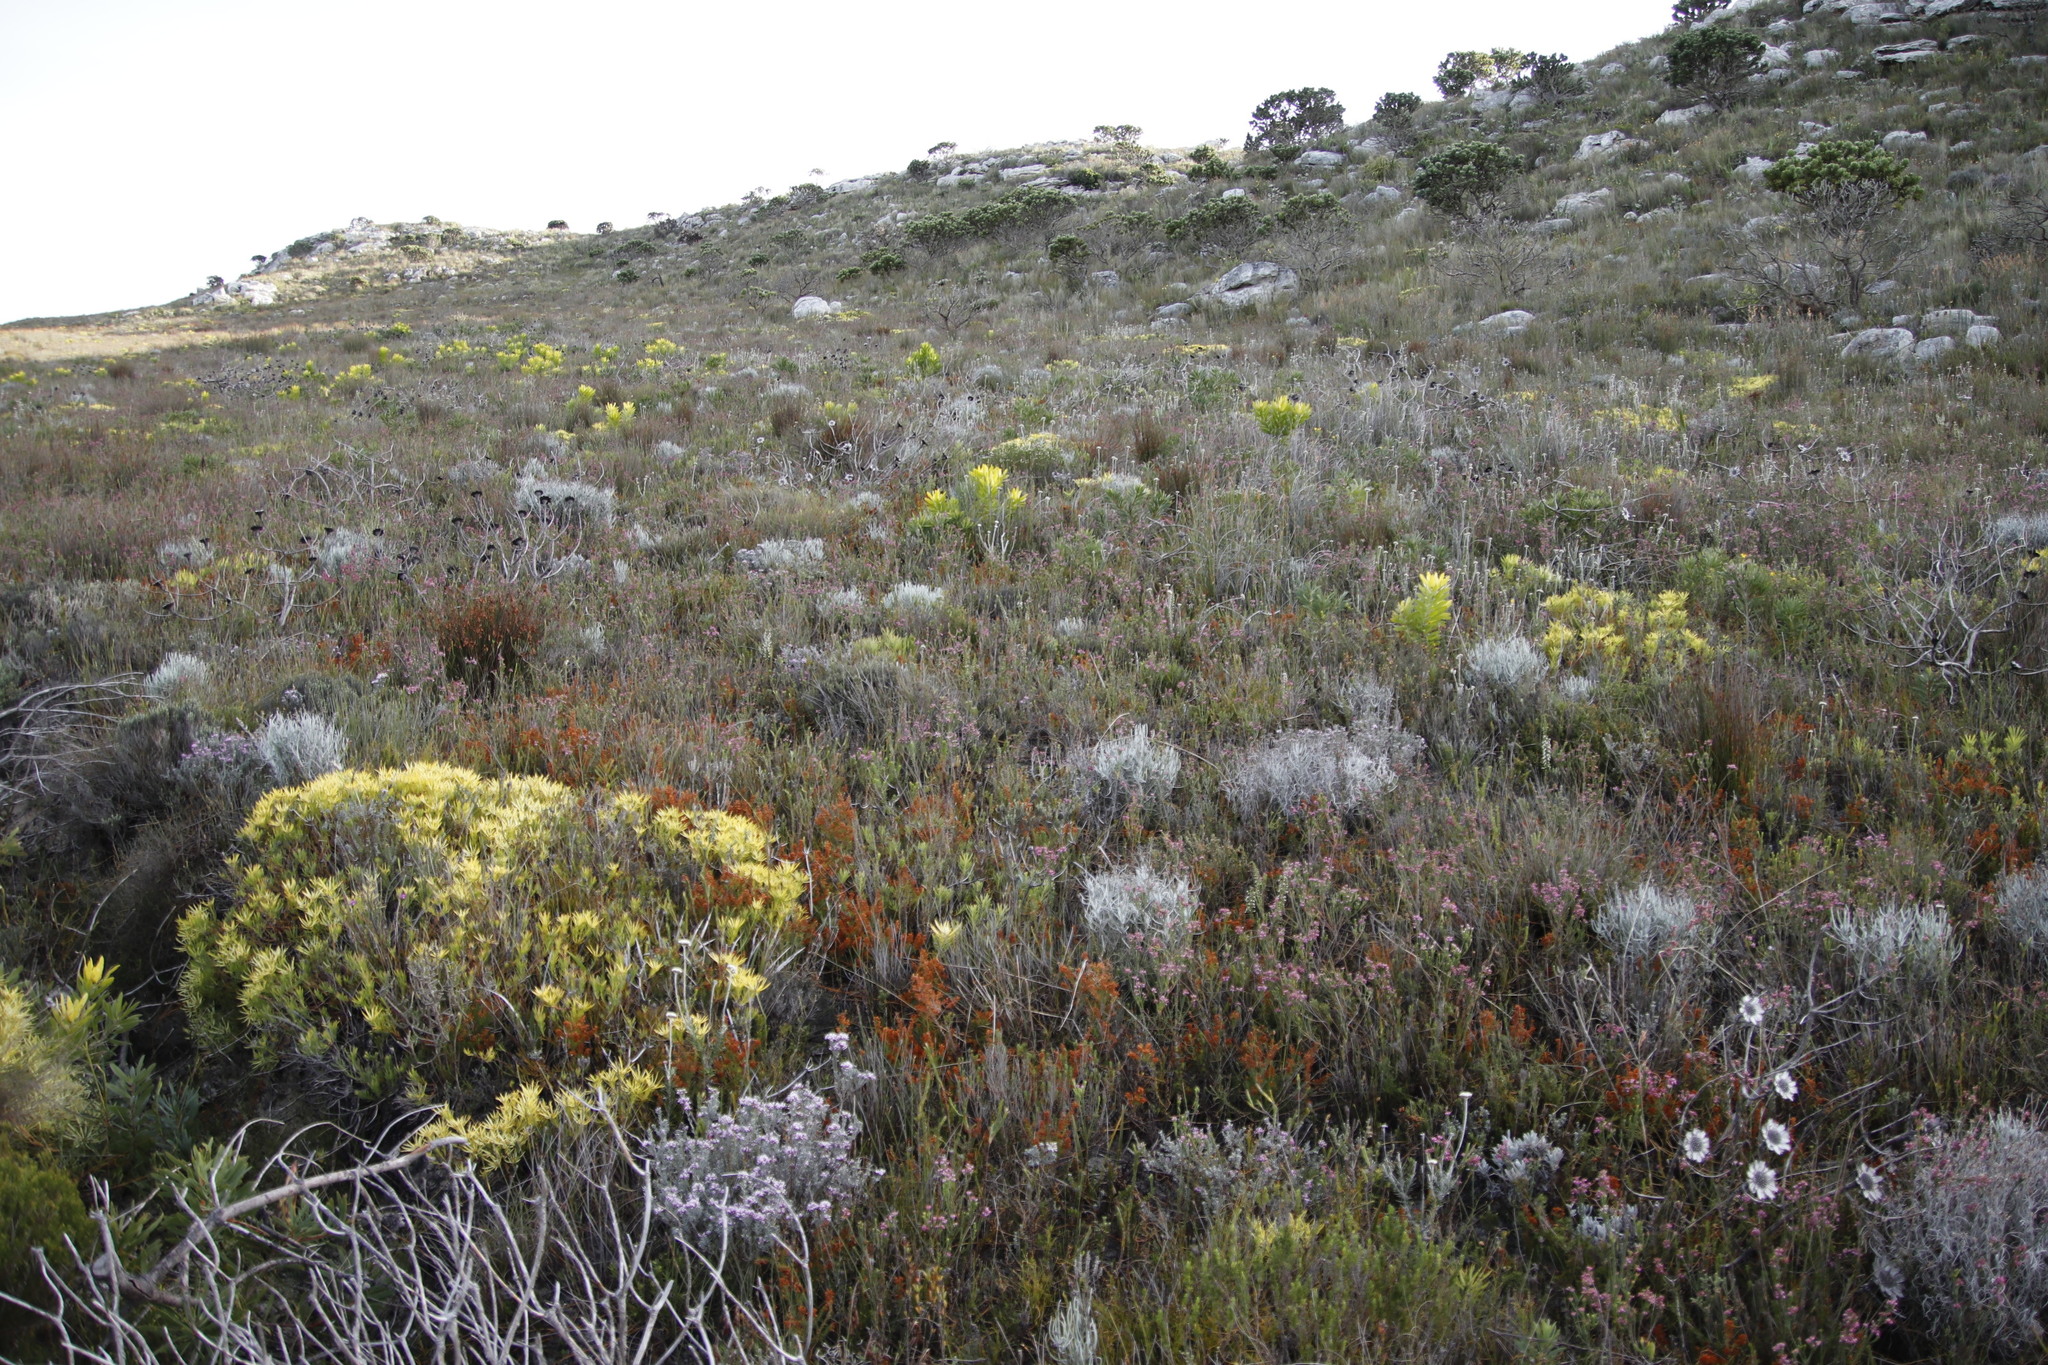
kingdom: Plantae
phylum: Tracheophyta
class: Magnoliopsida
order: Proteales
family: Proteaceae
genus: Leucadendron
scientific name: Leucadendron laureolum
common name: Golden sunshinebush
